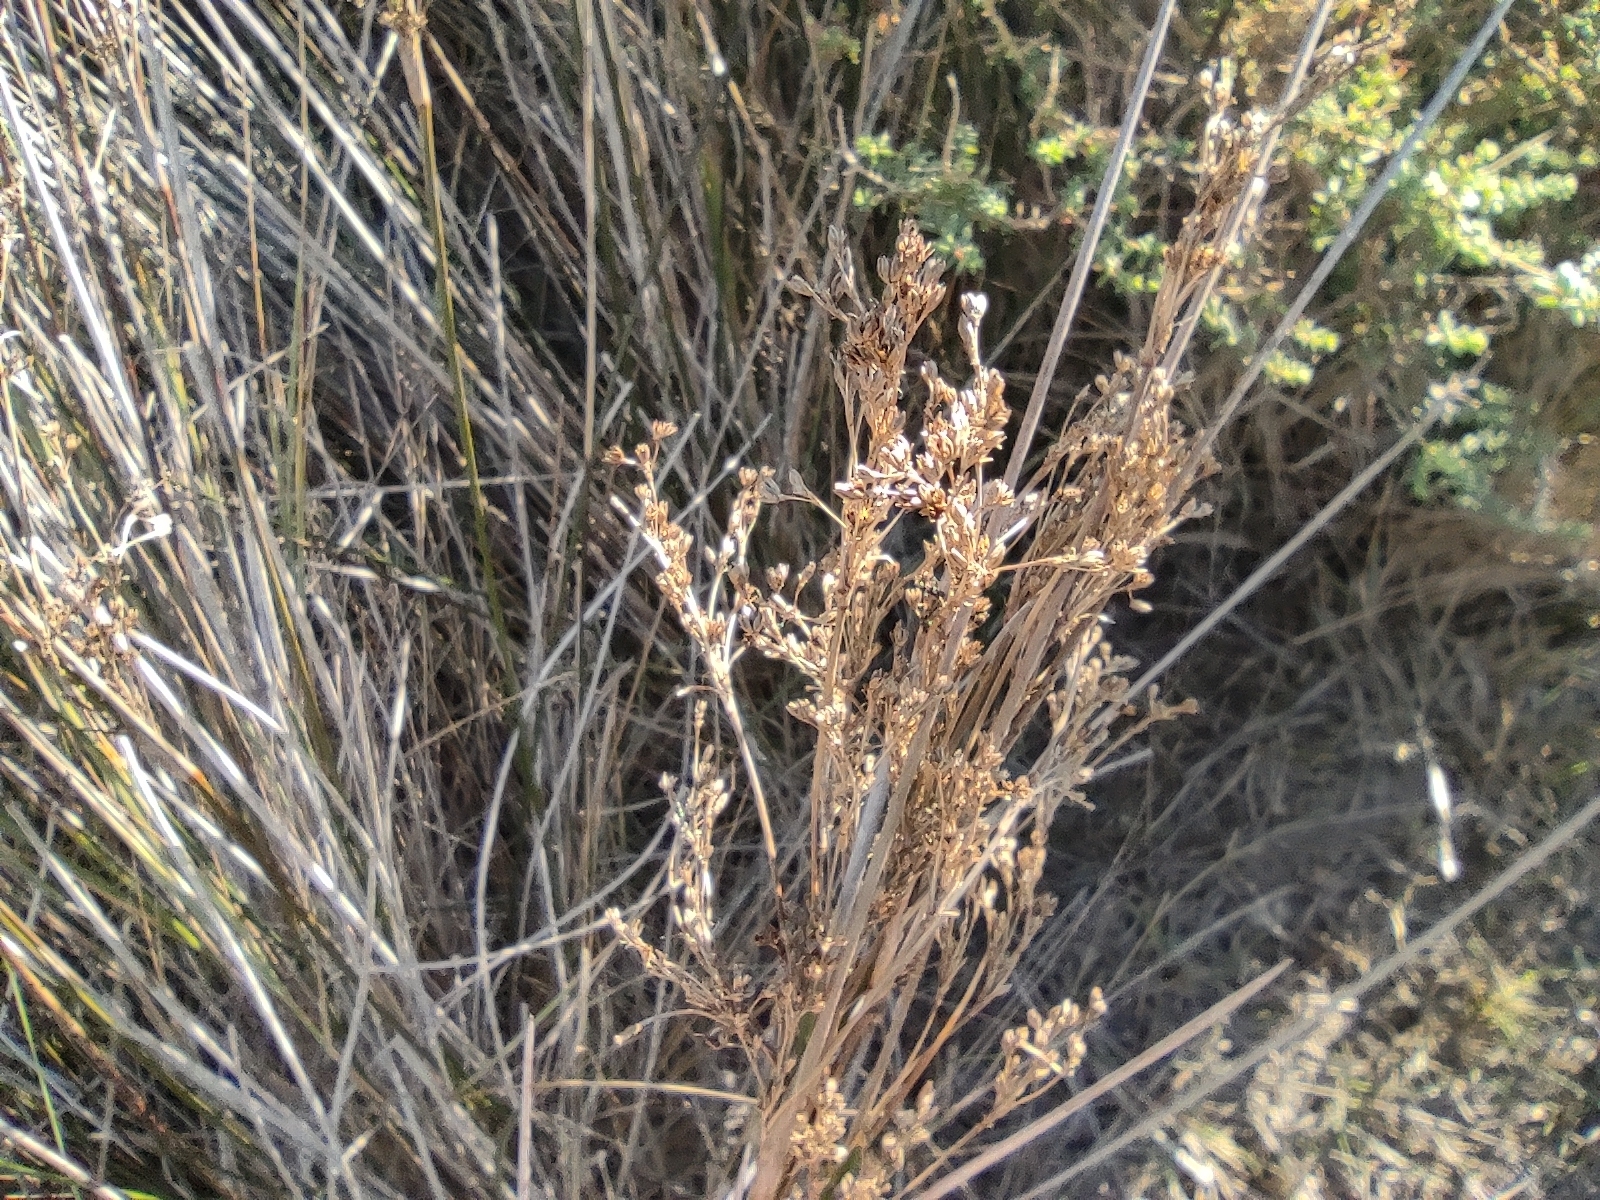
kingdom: Plantae
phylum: Tracheophyta
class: Liliopsida
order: Poales
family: Juncaceae
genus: Juncus
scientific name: Juncus maritimus
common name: Sea rush
